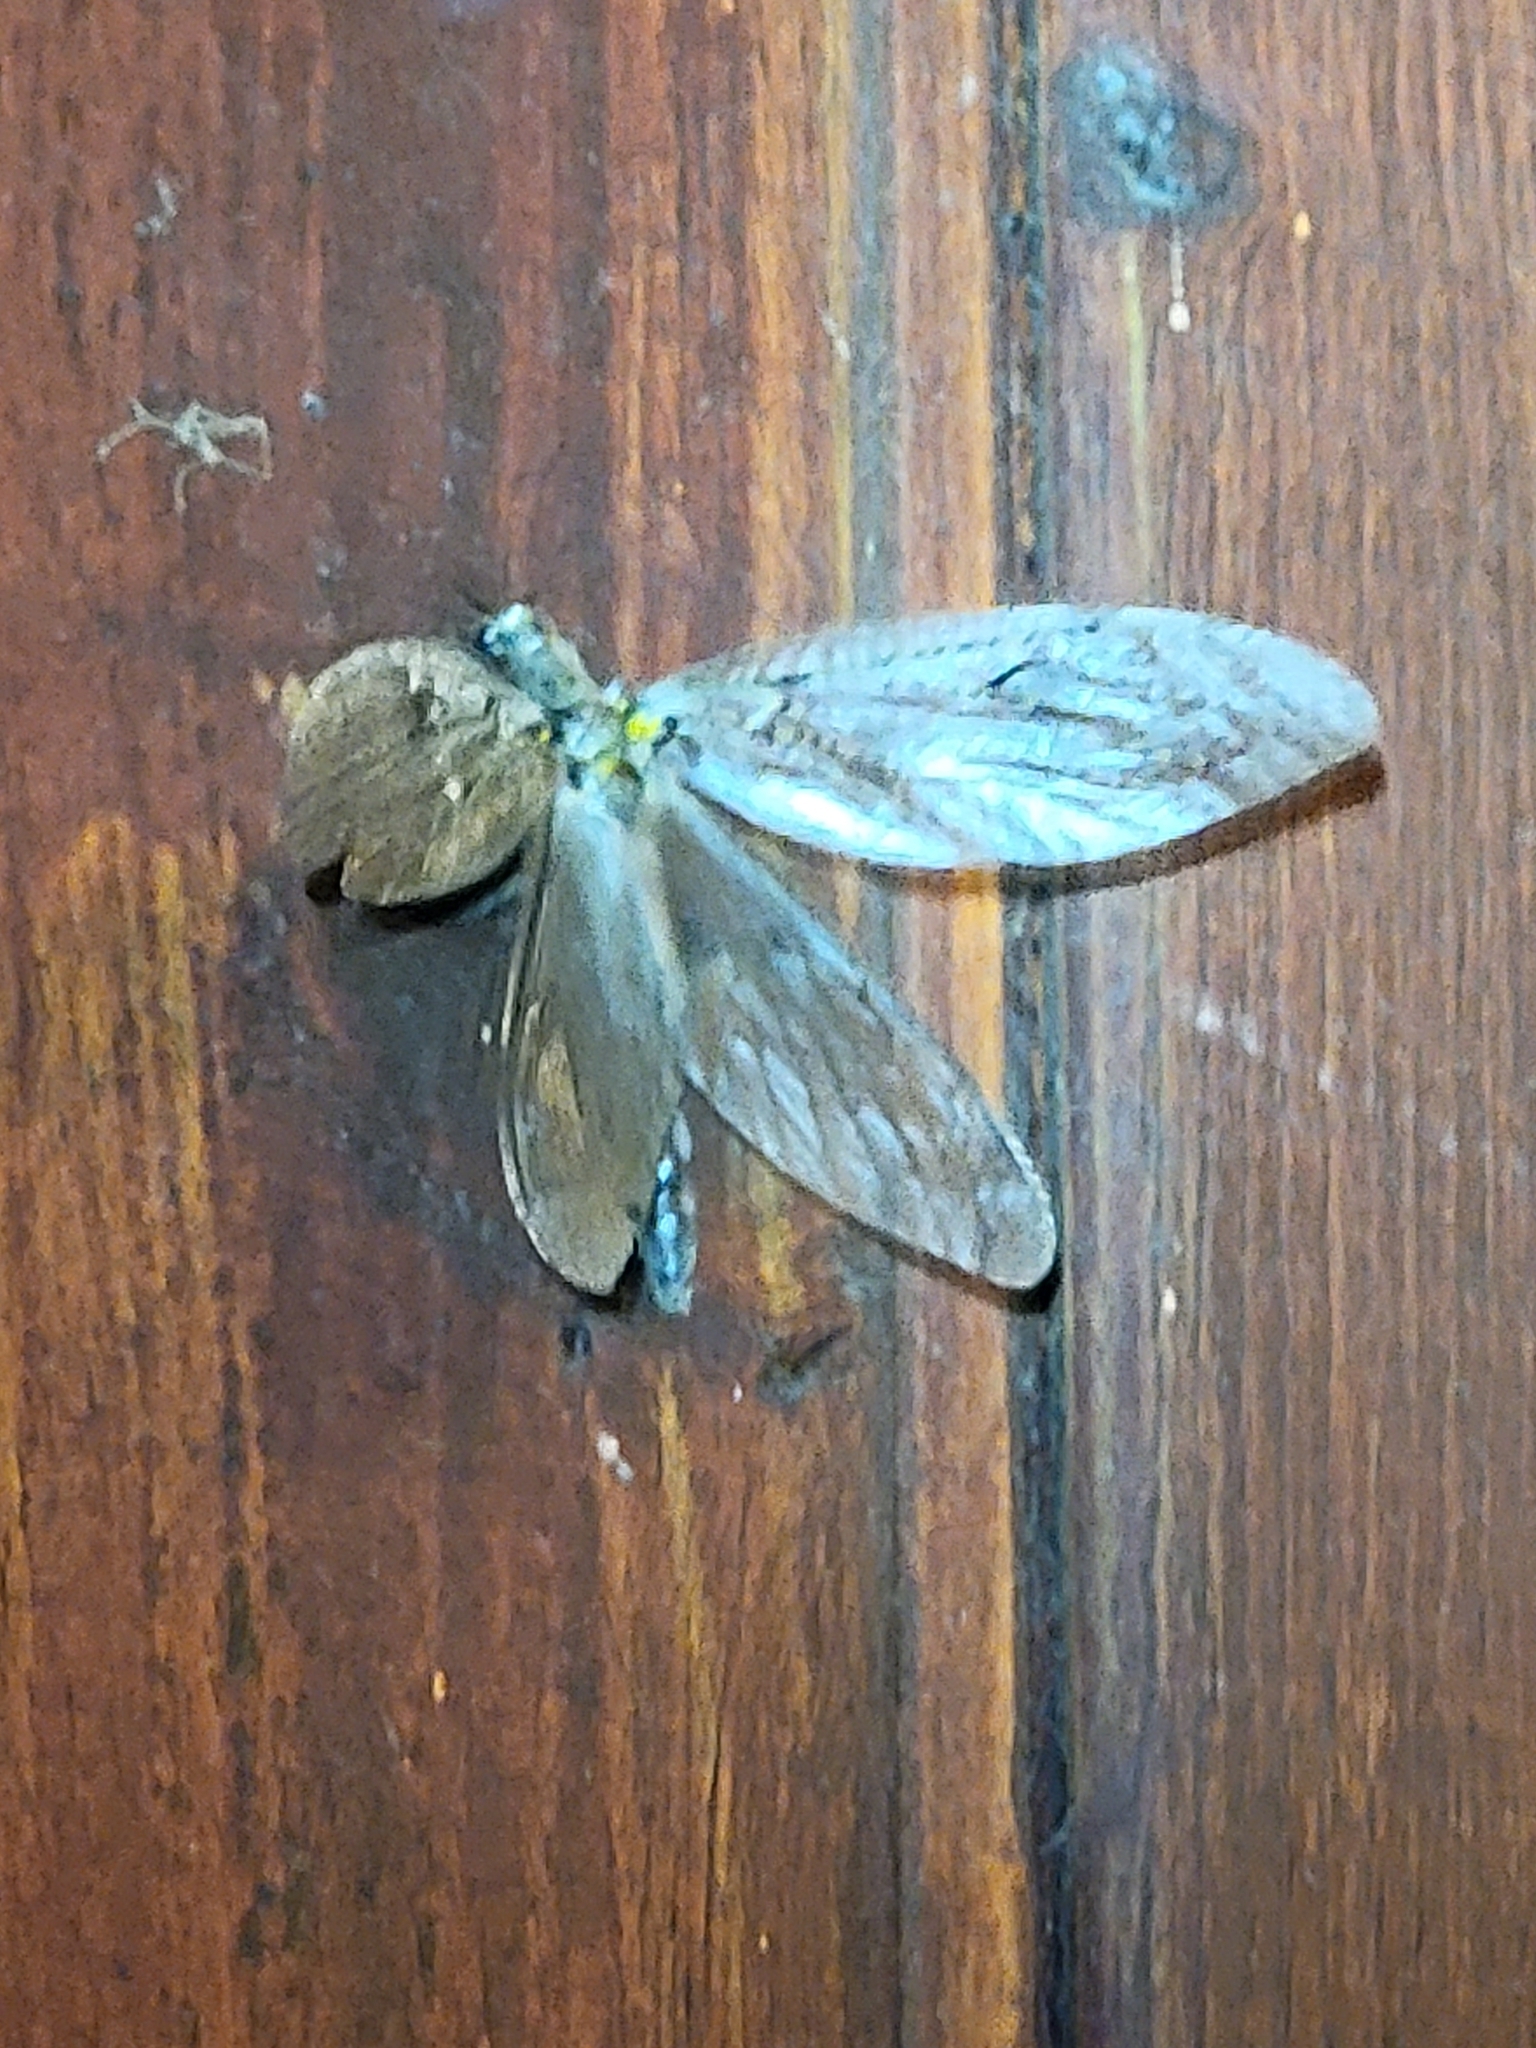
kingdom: Animalia
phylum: Arthropoda
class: Insecta
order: Megaloptera
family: Corydalidae
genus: Chauliodes
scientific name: Chauliodes rastricornis
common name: Spring fishfly
